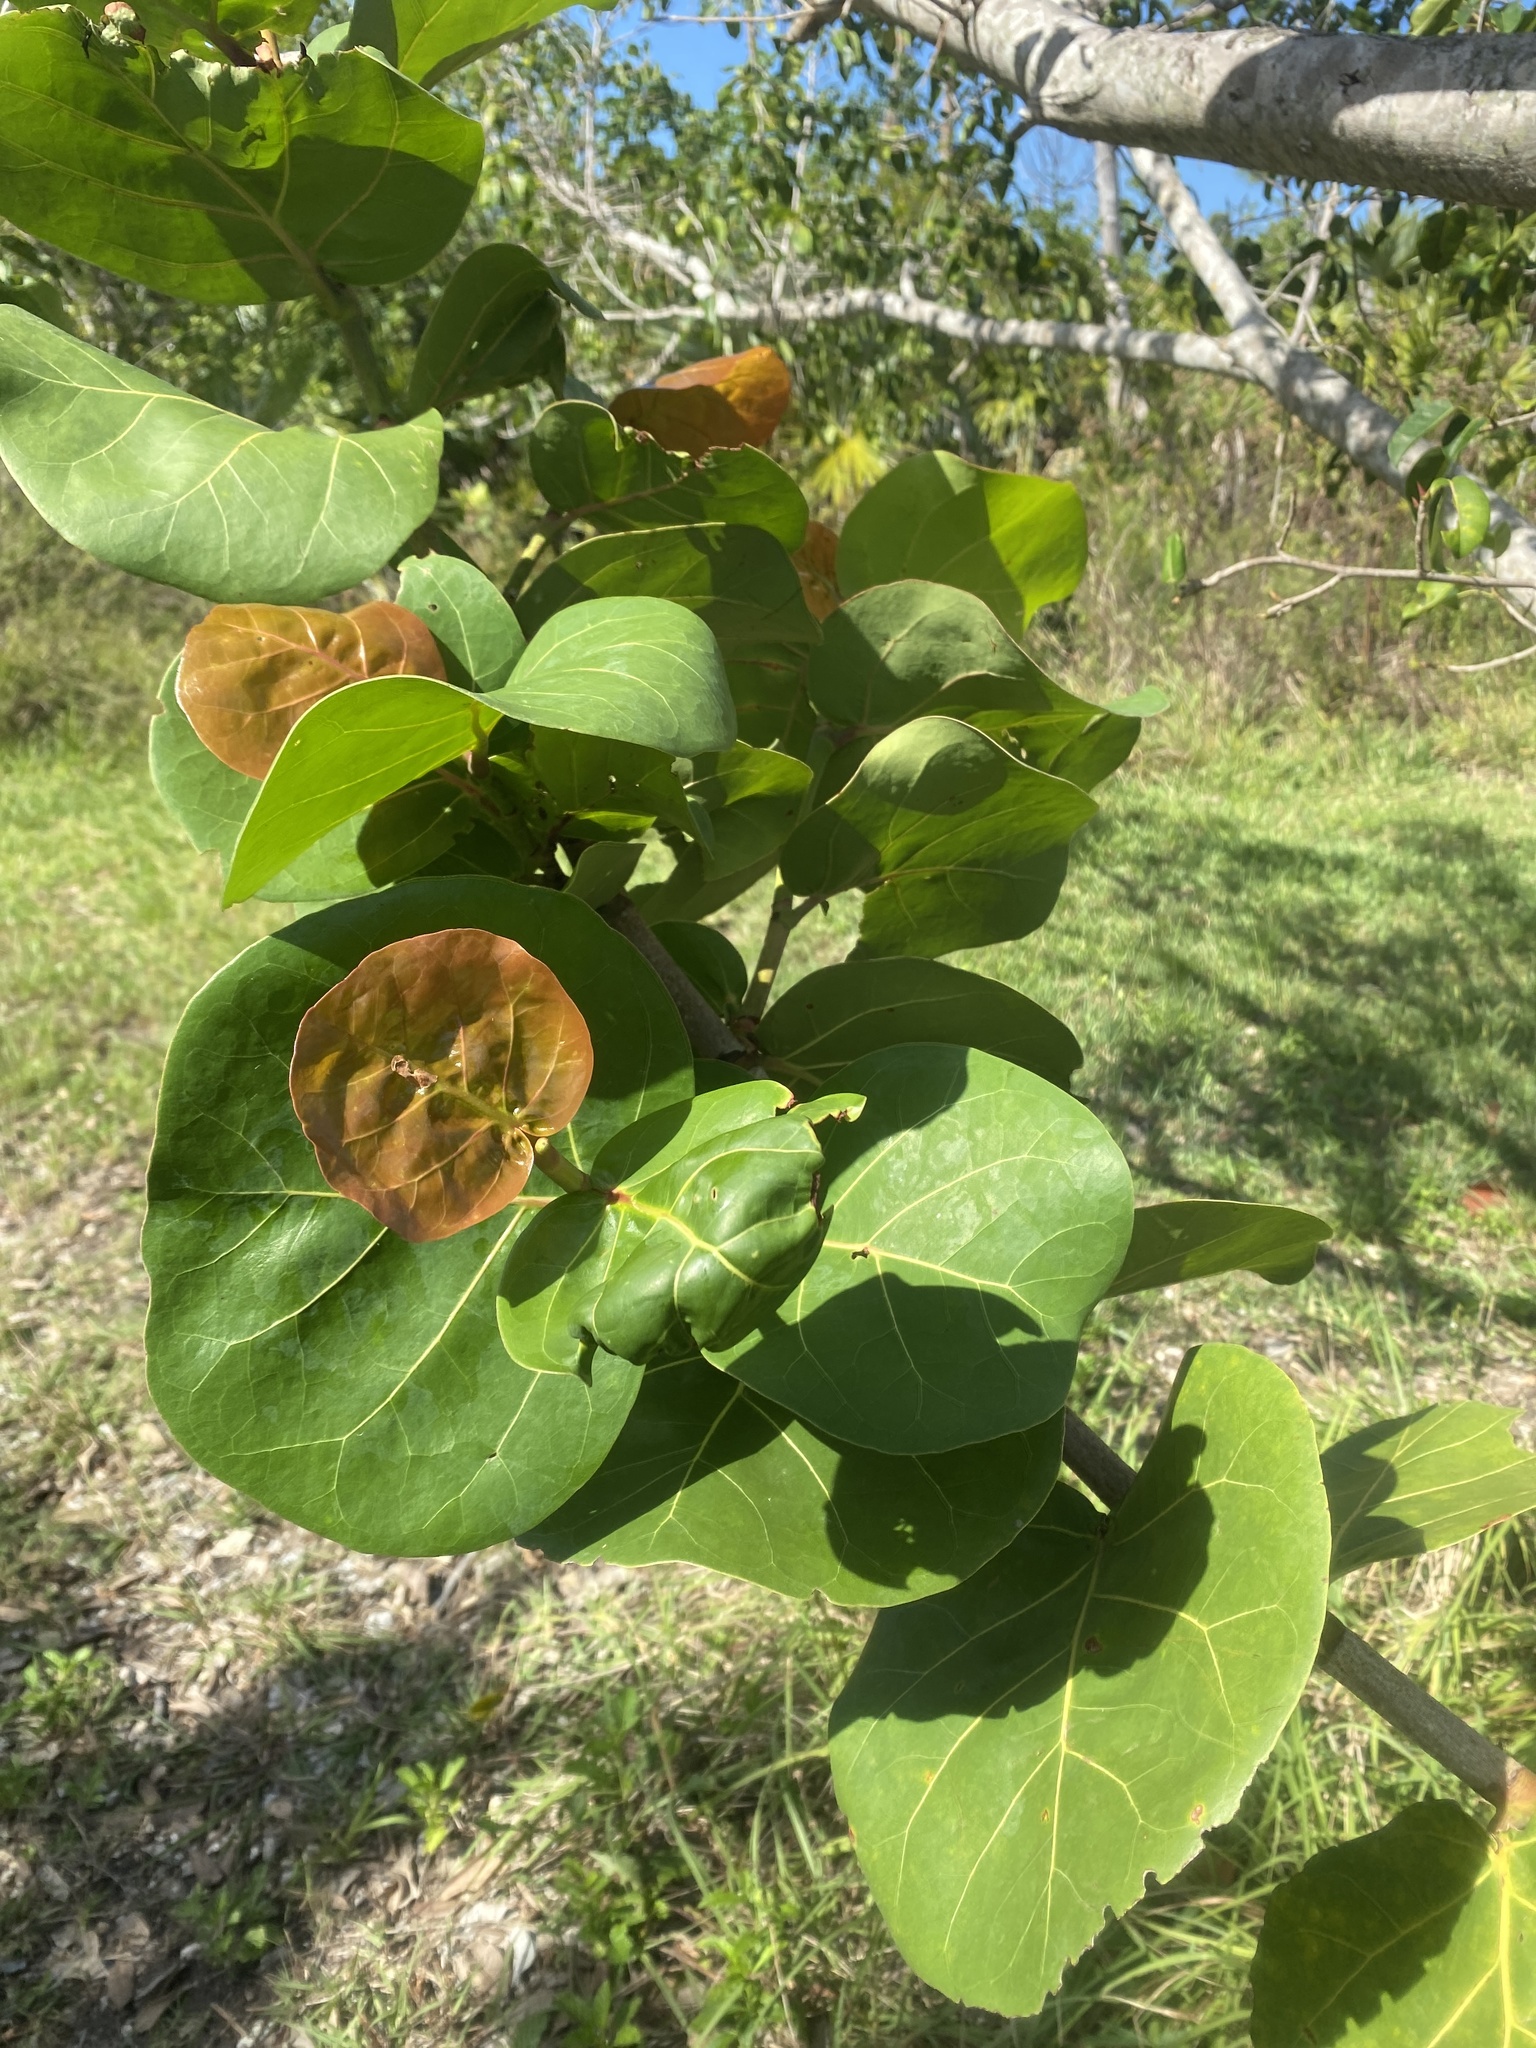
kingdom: Plantae
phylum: Tracheophyta
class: Magnoliopsida
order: Caryophyllales
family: Polygonaceae
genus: Coccoloba
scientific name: Coccoloba uvifera
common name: Seagrape
